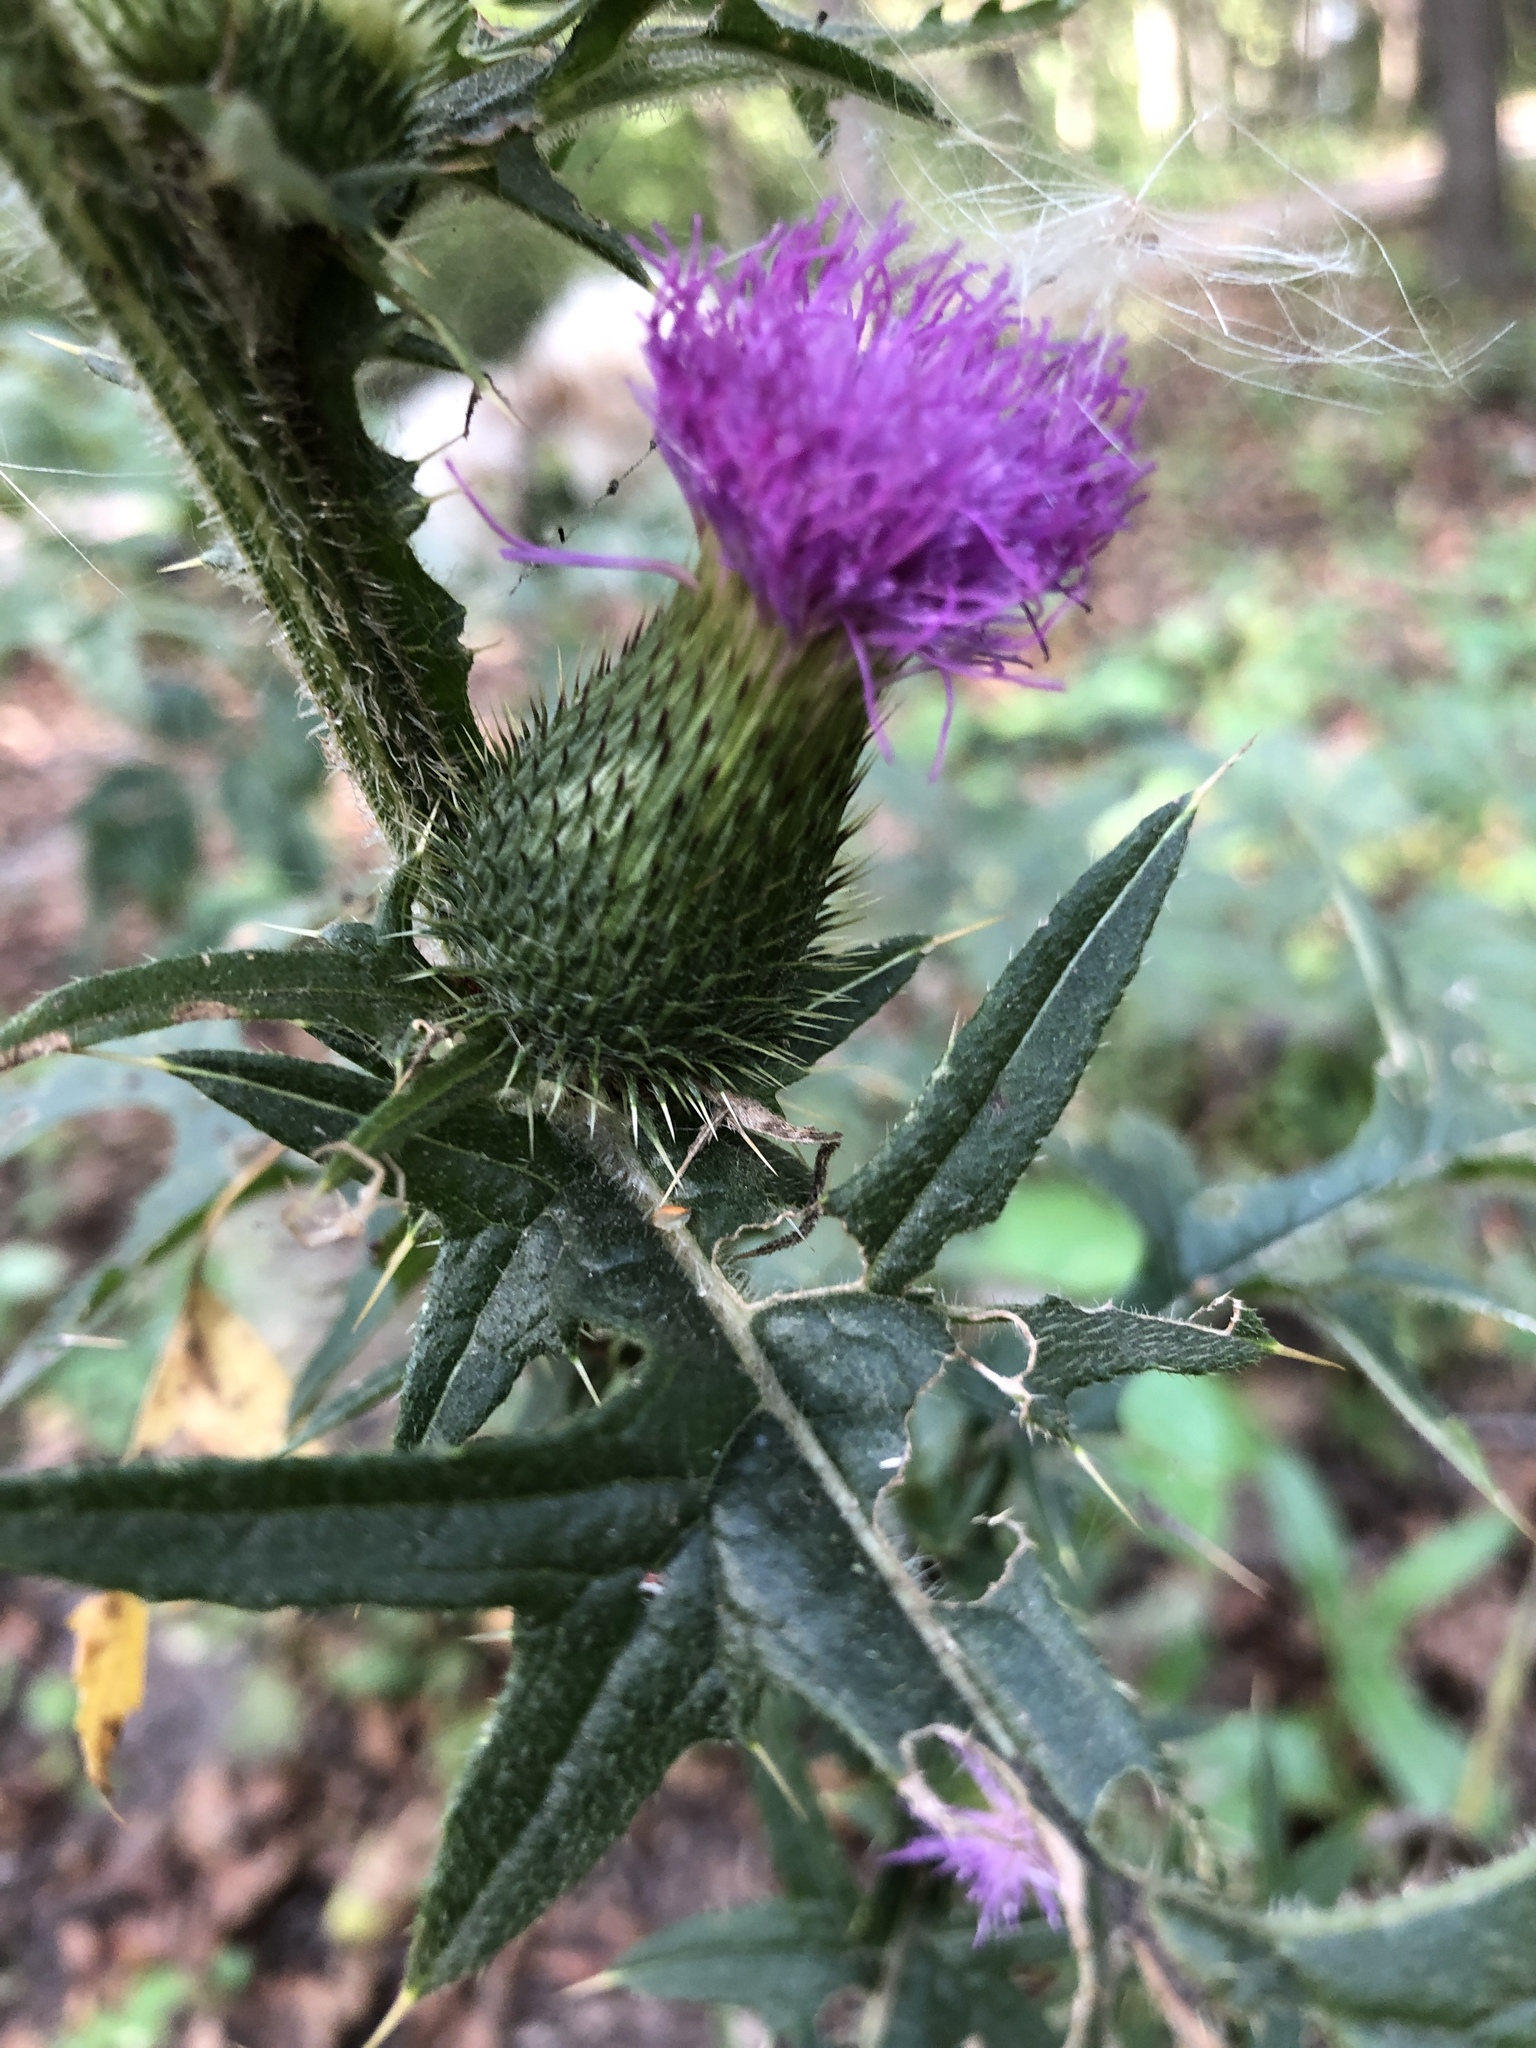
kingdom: Plantae
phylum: Tracheophyta
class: Magnoliopsida
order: Asterales
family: Asteraceae
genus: Cirsium
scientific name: Cirsium vulgare
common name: Bull thistle
